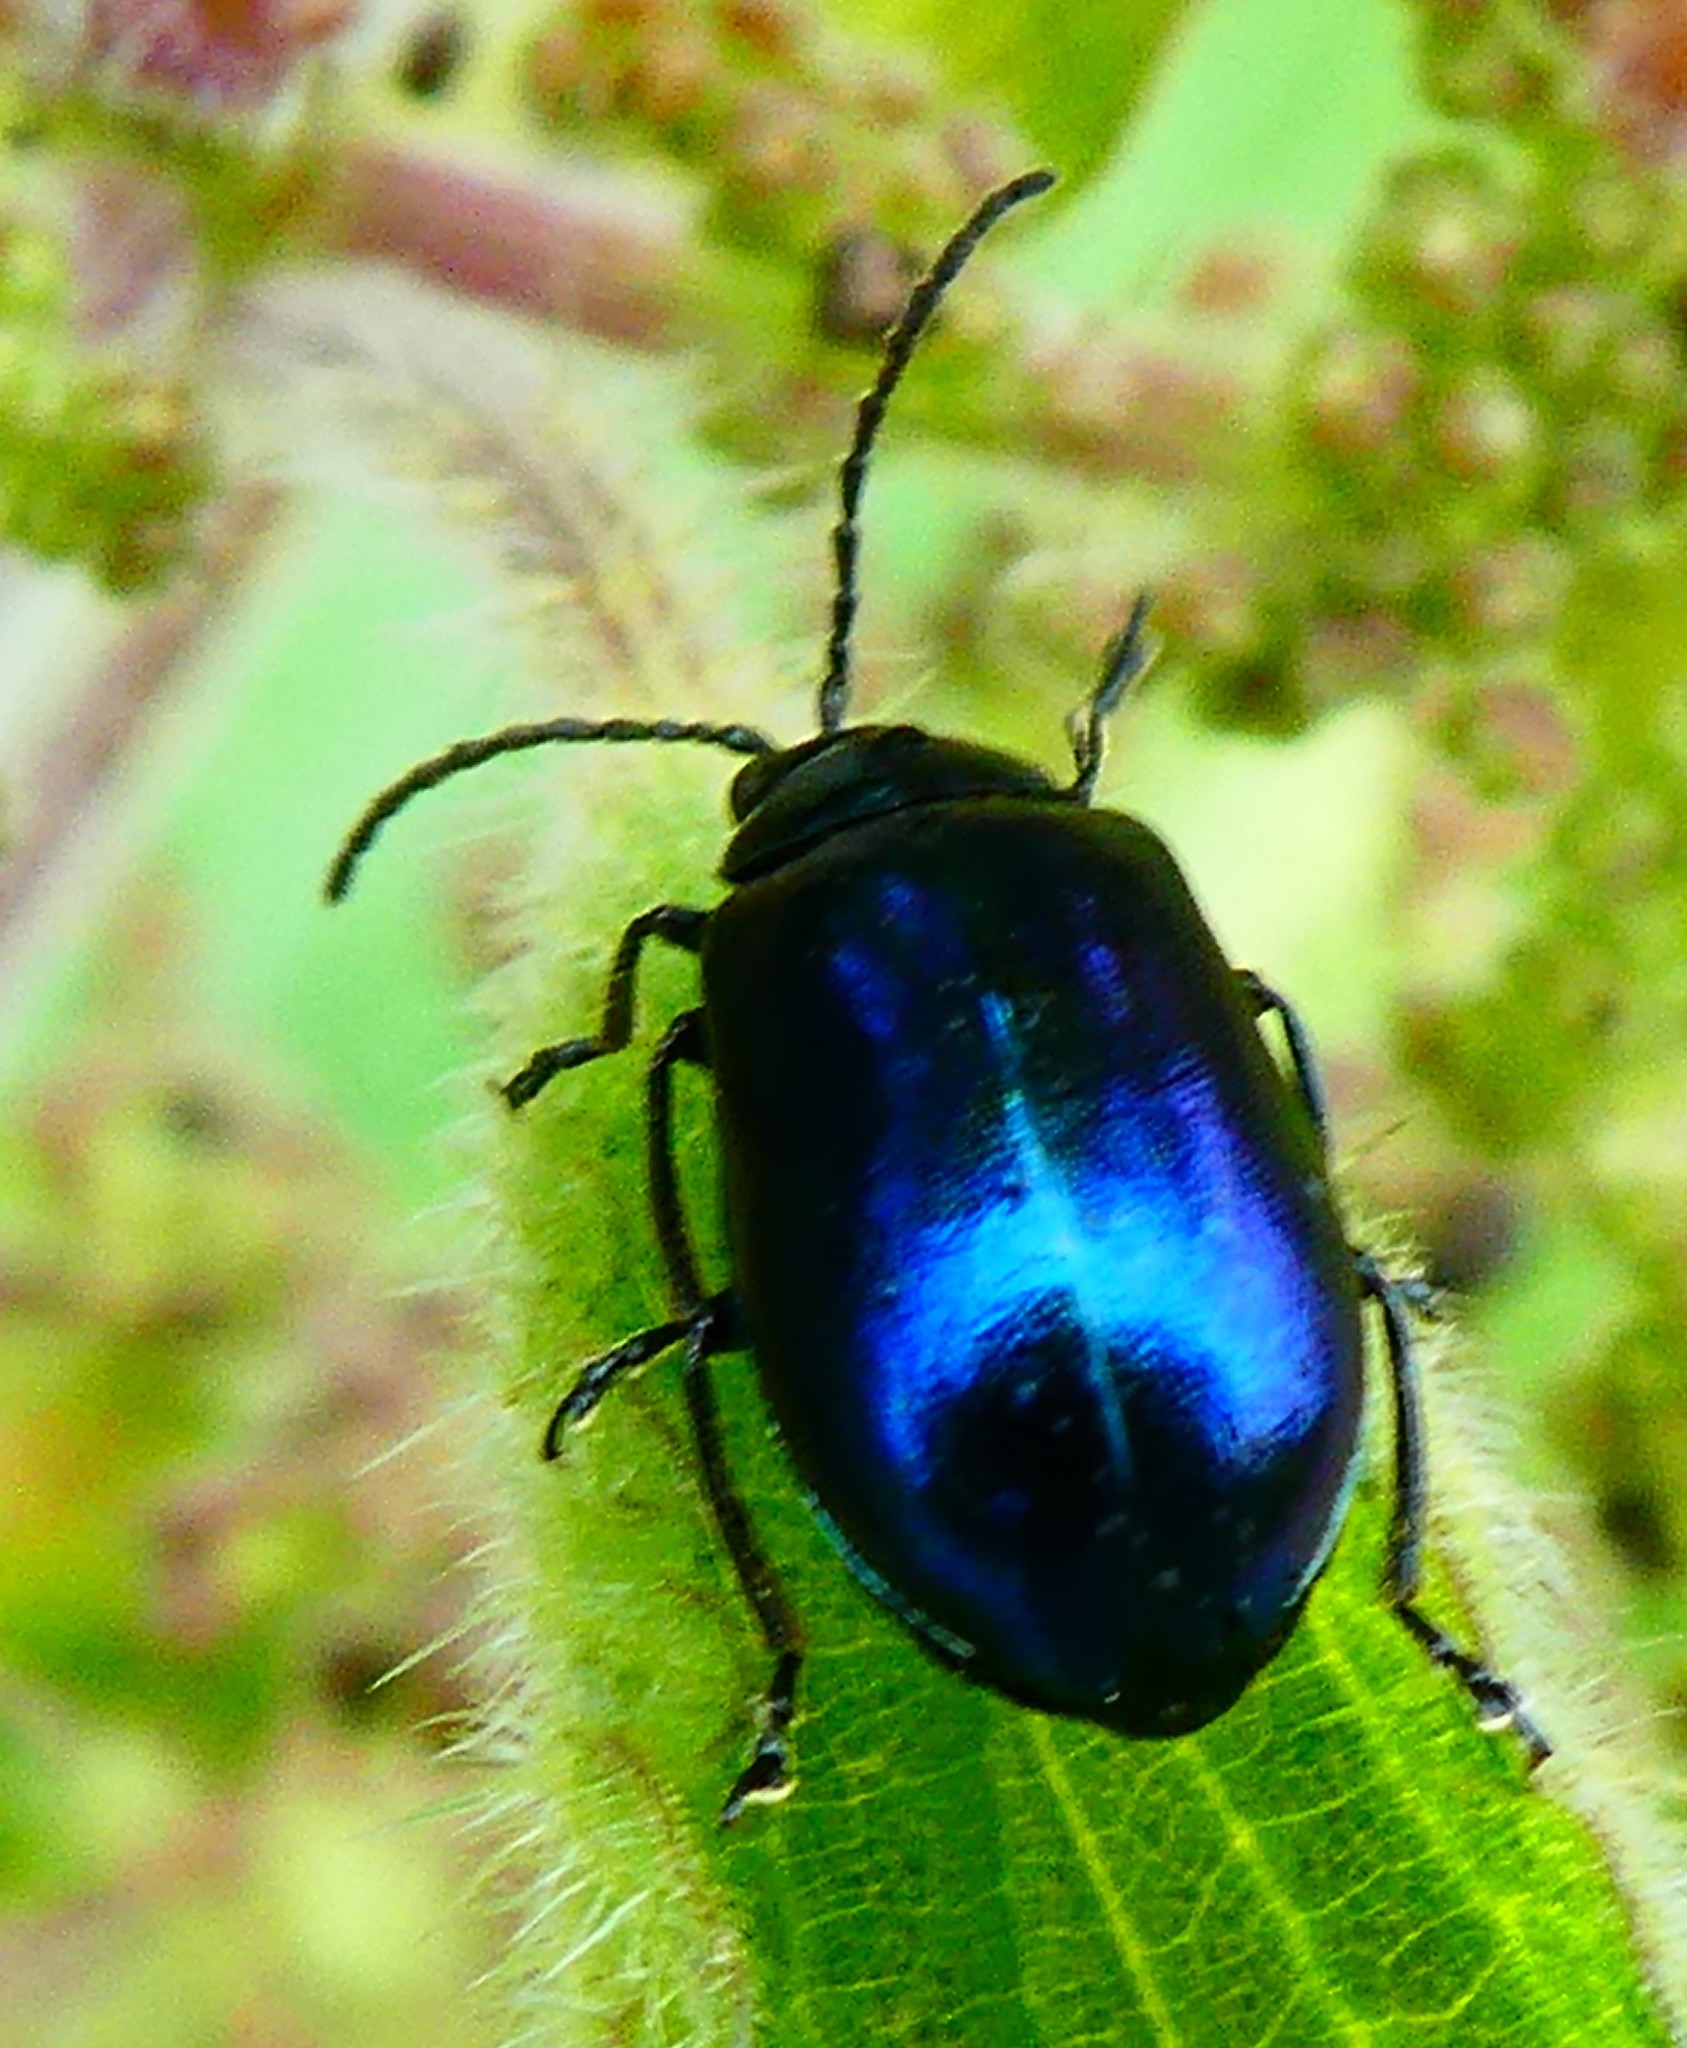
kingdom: Animalia
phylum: Arthropoda
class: Insecta
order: Coleoptera
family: Chrysomelidae
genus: Agelastica
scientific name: Agelastica alni
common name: Alder leaf beetle
